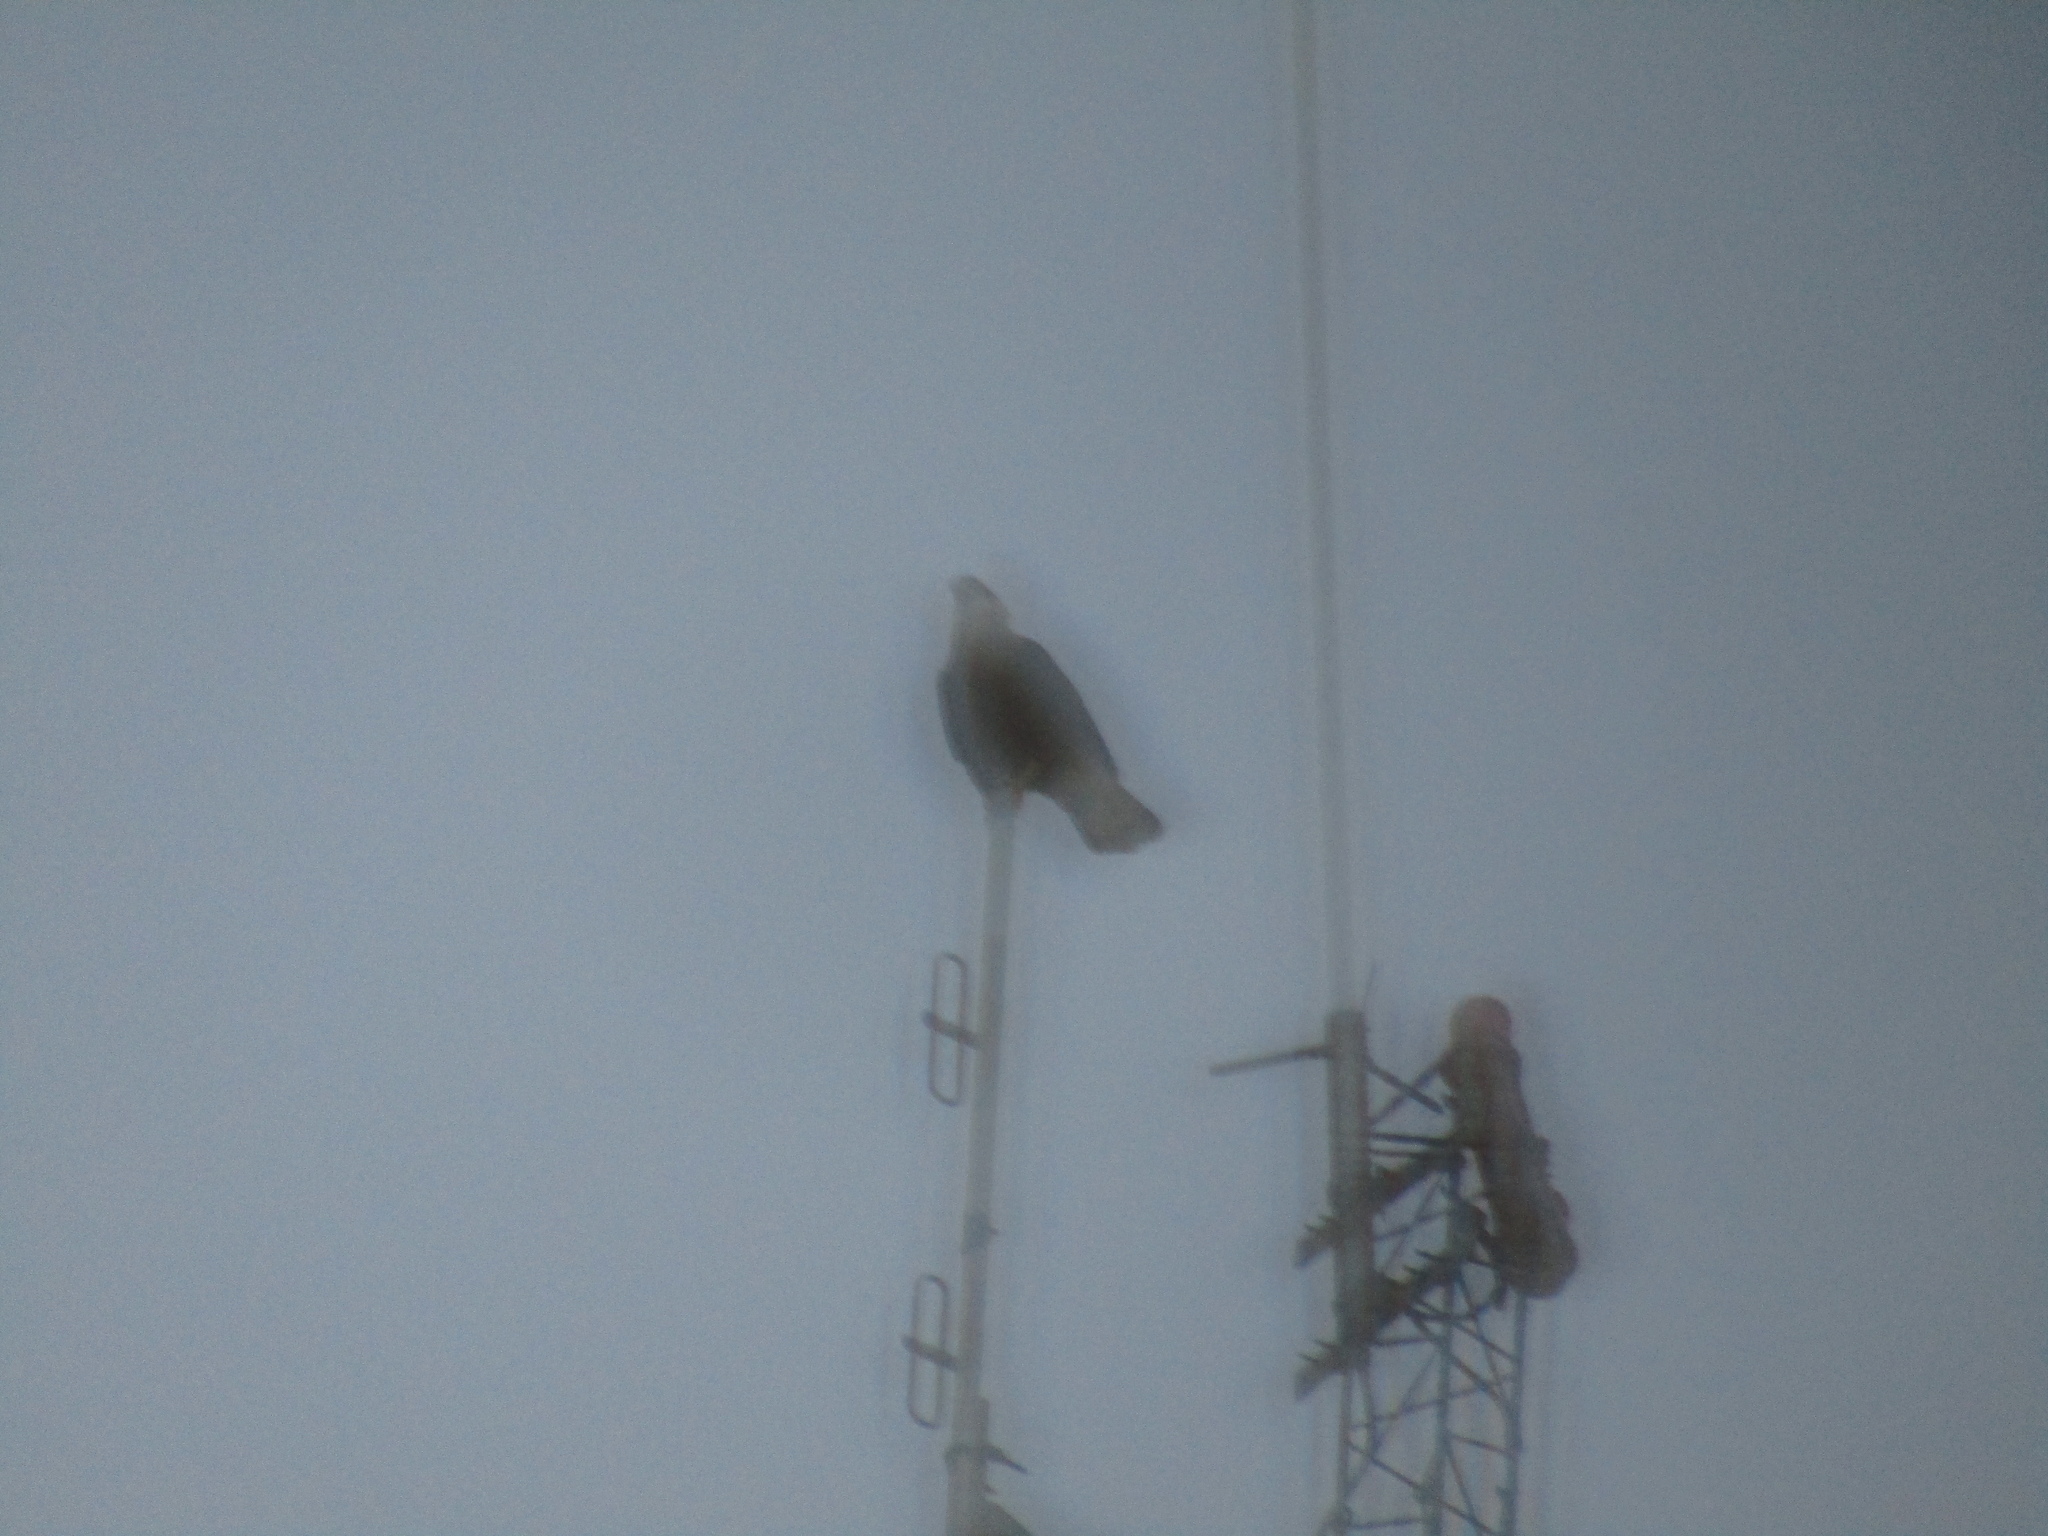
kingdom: Animalia
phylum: Chordata
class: Aves
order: Falconiformes
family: Falconidae
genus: Caracara
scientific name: Caracara plancus
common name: Southern caracara
